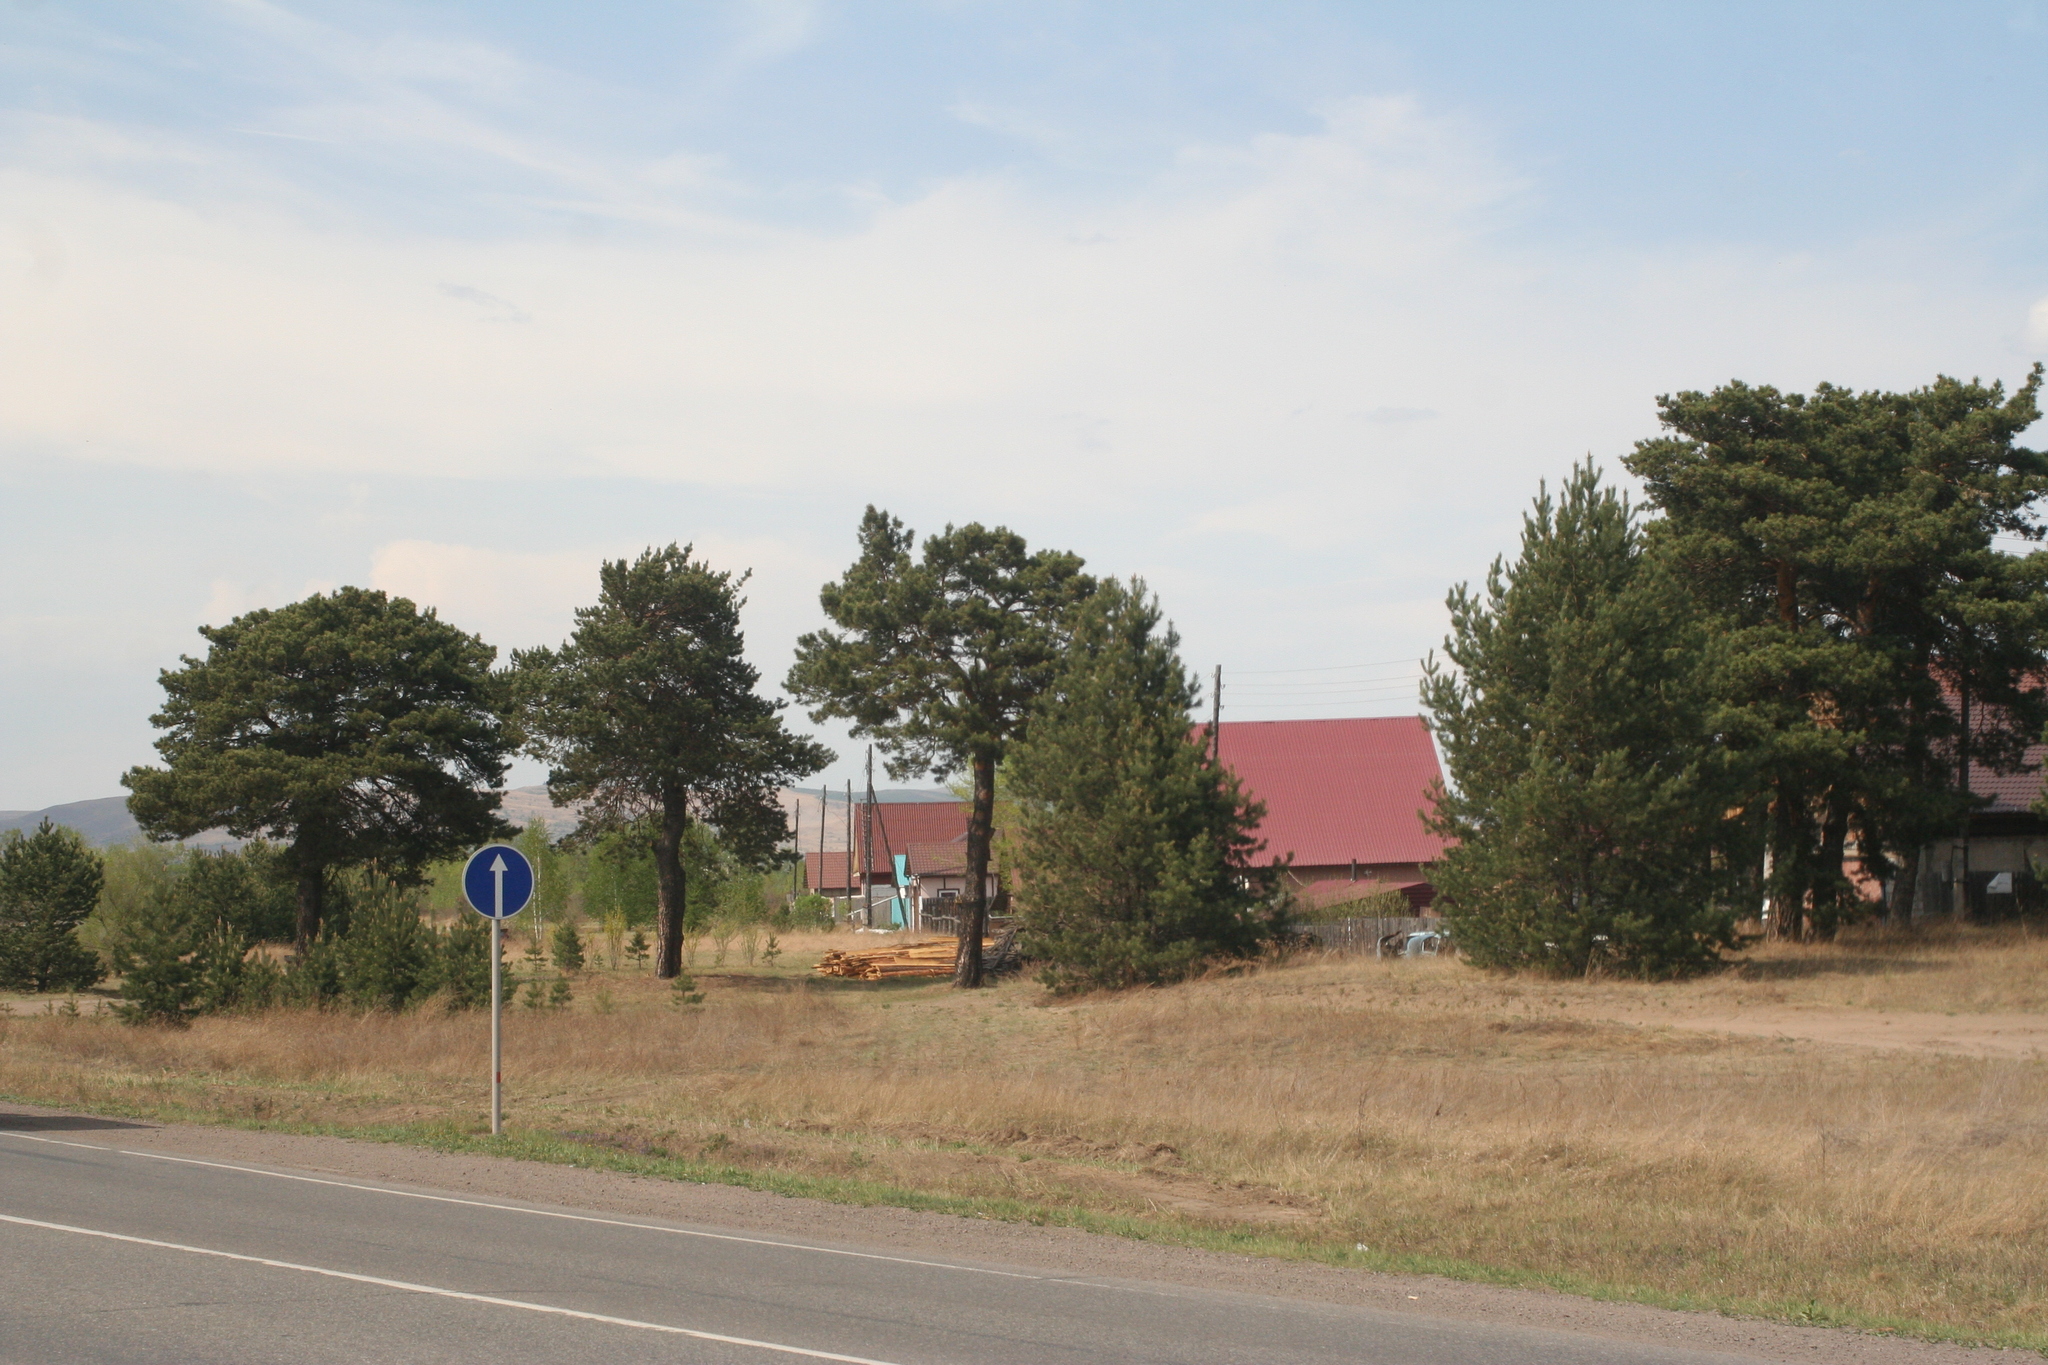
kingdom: Plantae
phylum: Tracheophyta
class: Pinopsida
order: Pinales
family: Pinaceae
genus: Pinus
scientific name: Pinus sylvestris
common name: Scots pine
